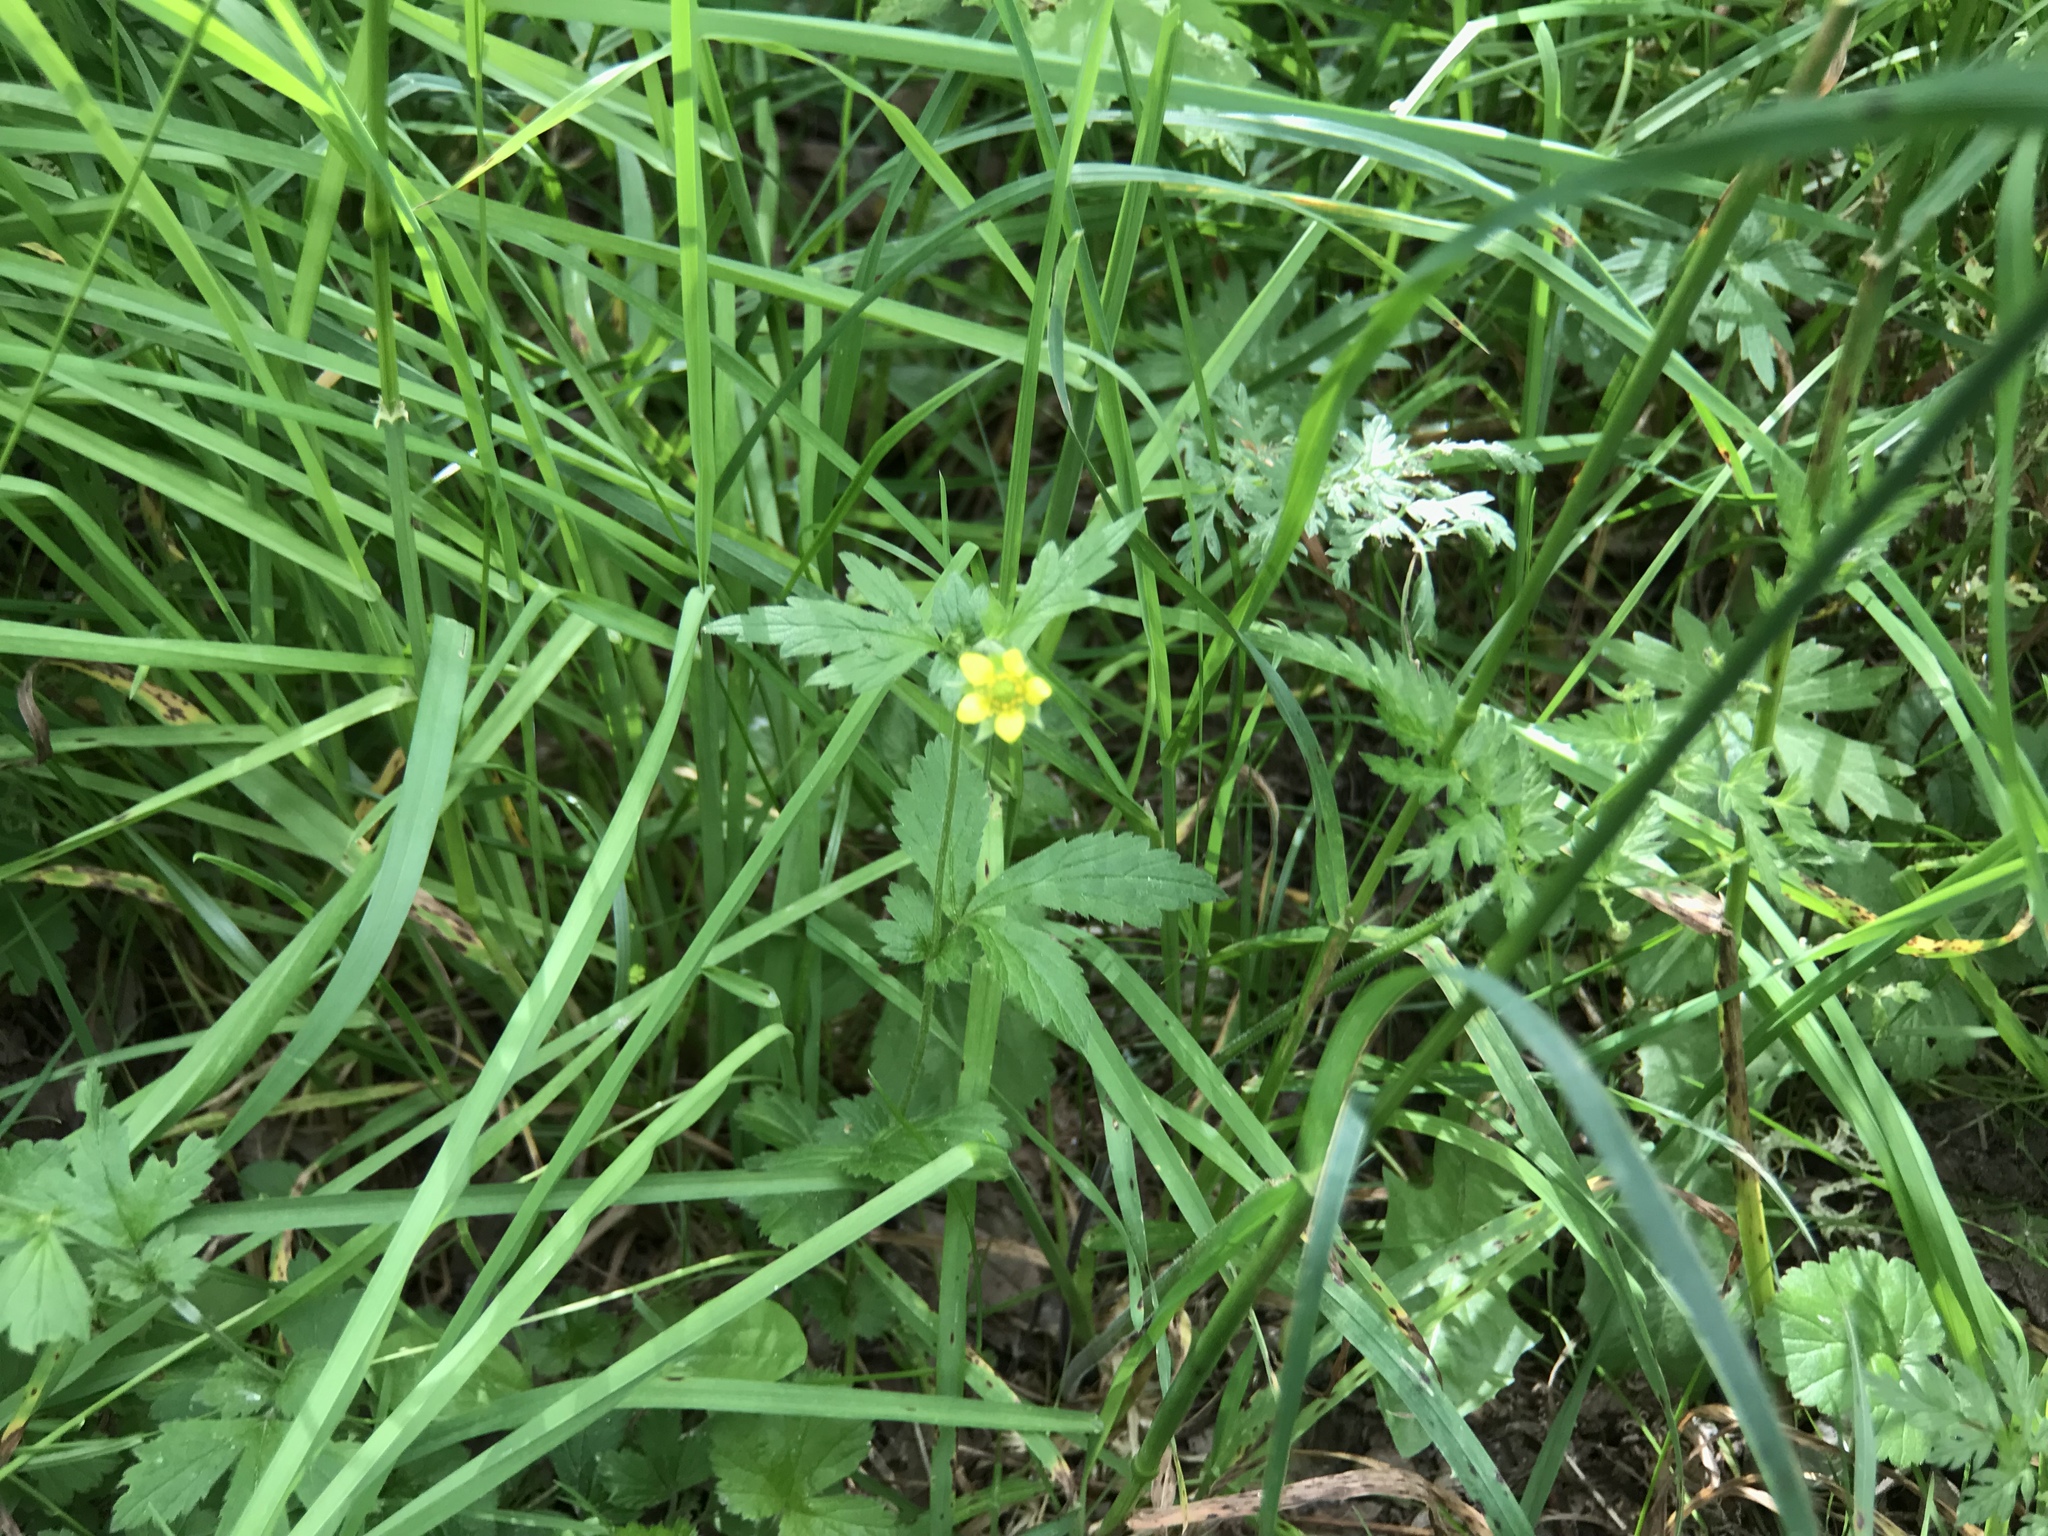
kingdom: Plantae
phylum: Tracheophyta
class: Magnoliopsida
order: Rosales
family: Rosaceae
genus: Geum
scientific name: Geum urbanum
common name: Wood avens
